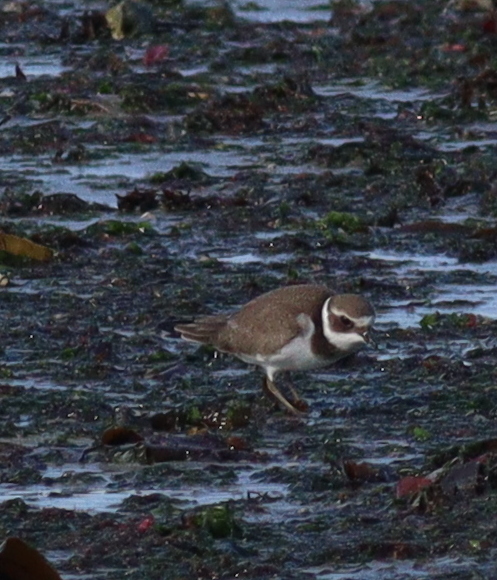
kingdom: Animalia
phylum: Chordata
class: Aves
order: Charadriiformes
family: Charadriidae
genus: Charadrius
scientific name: Charadrius hiaticula
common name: Common ringed plover
